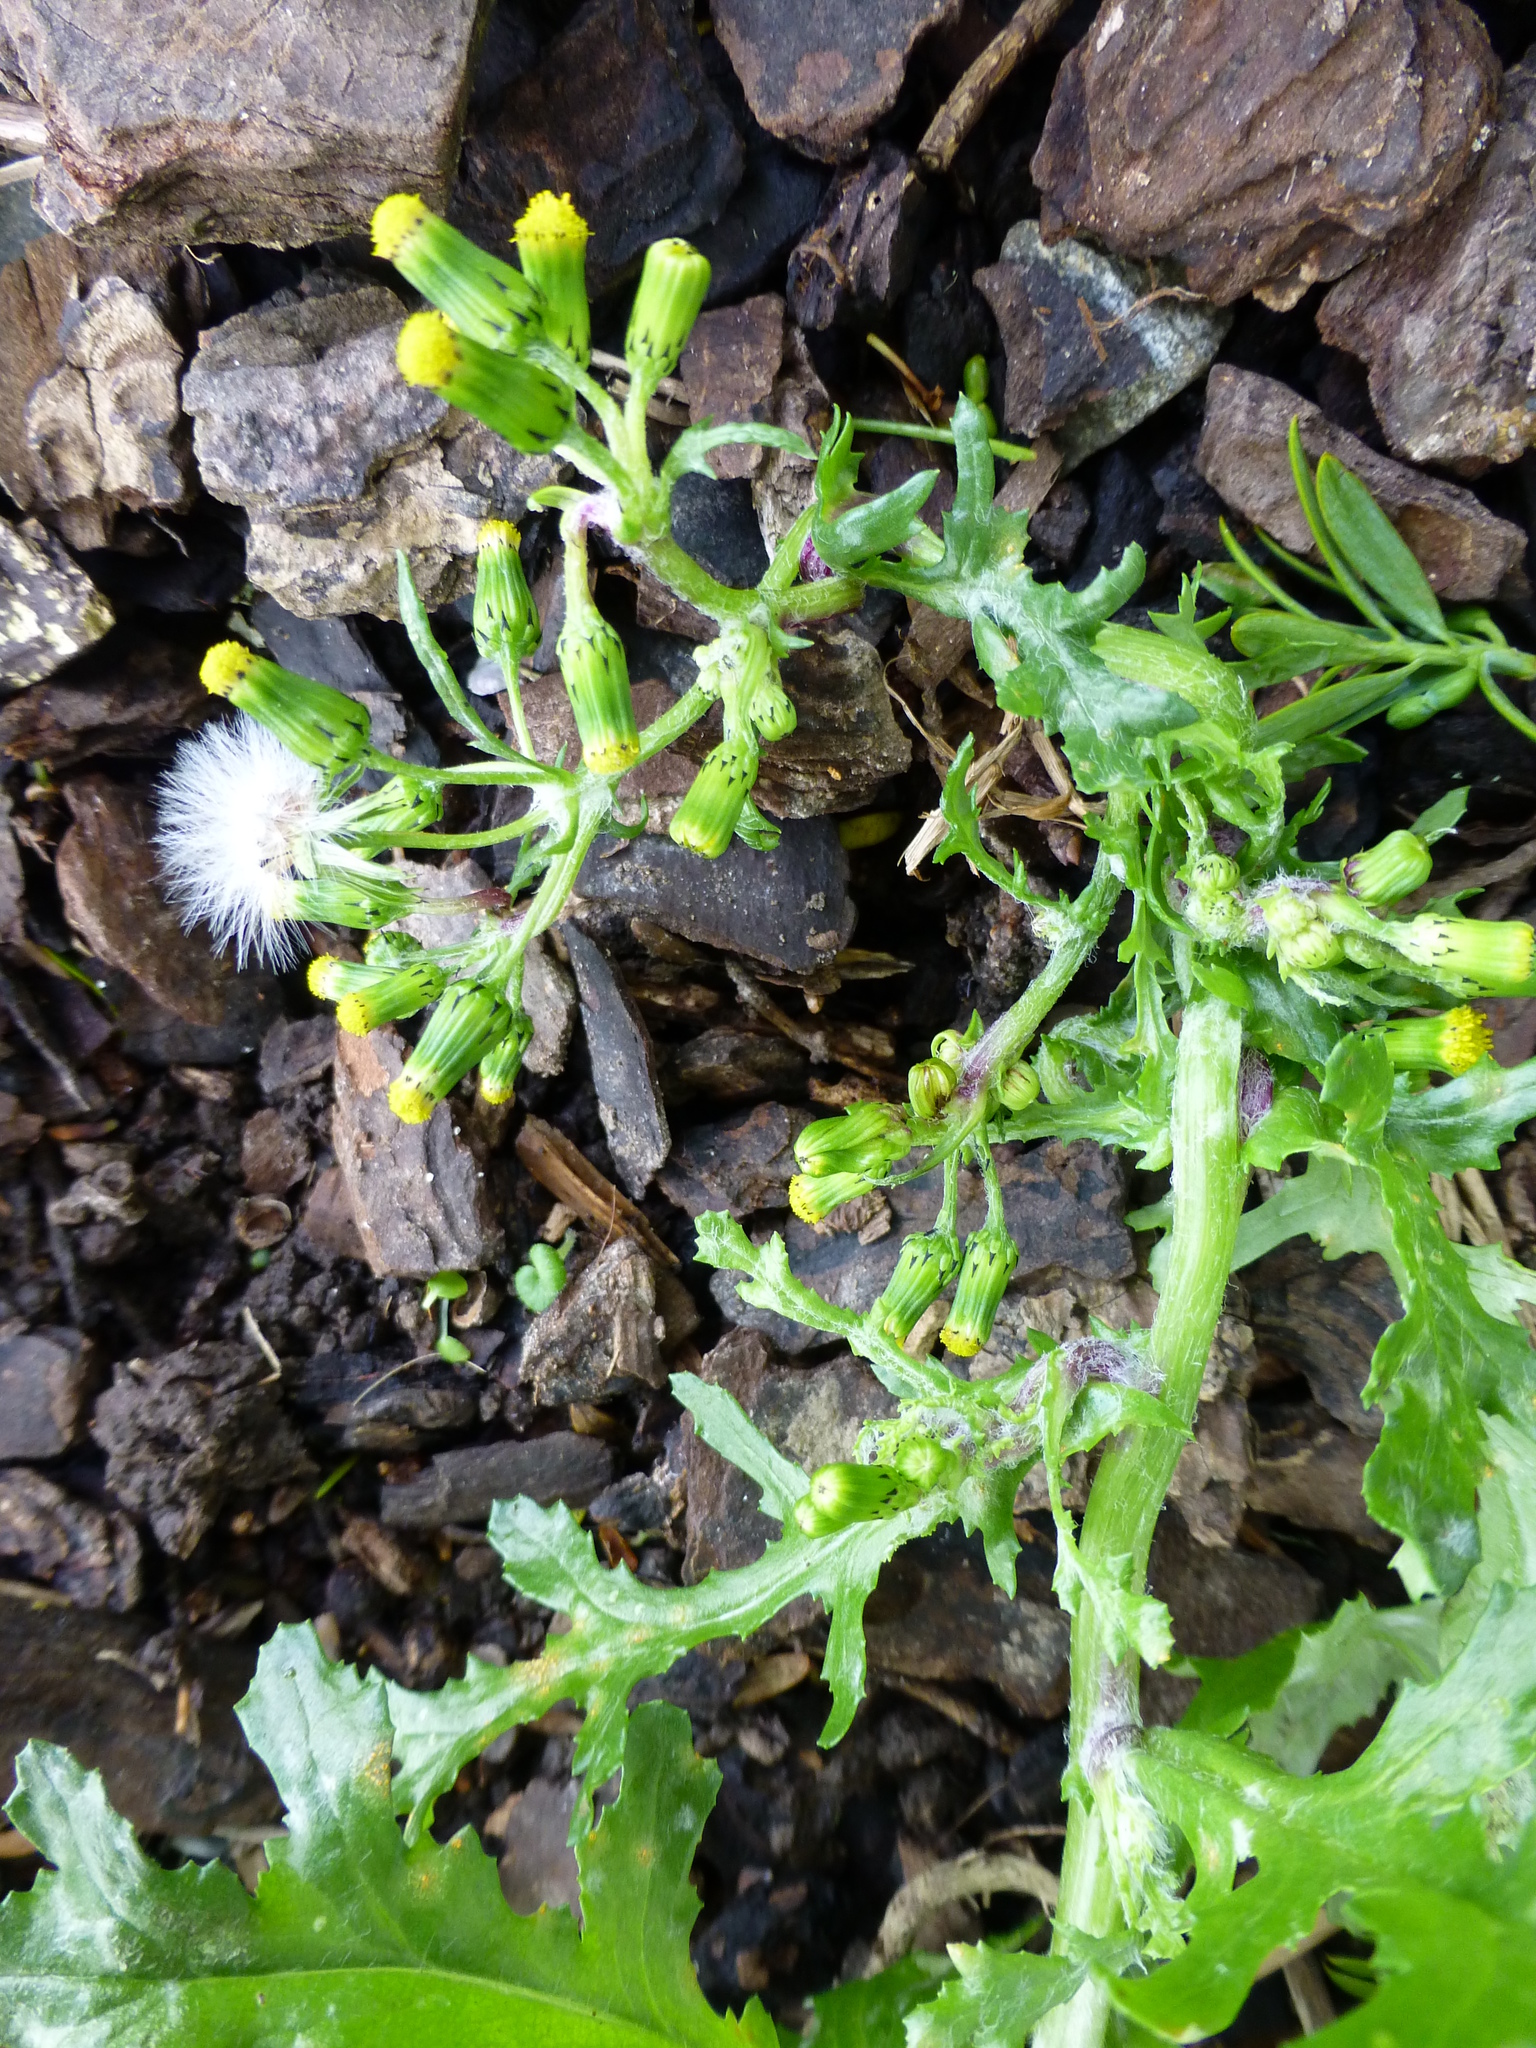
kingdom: Plantae
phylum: Tracheophyta
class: Magnoliopsida
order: Asterales
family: Asteraceae
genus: Senecio
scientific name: Senecio vulgaris
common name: Old-man-in-the-spring
